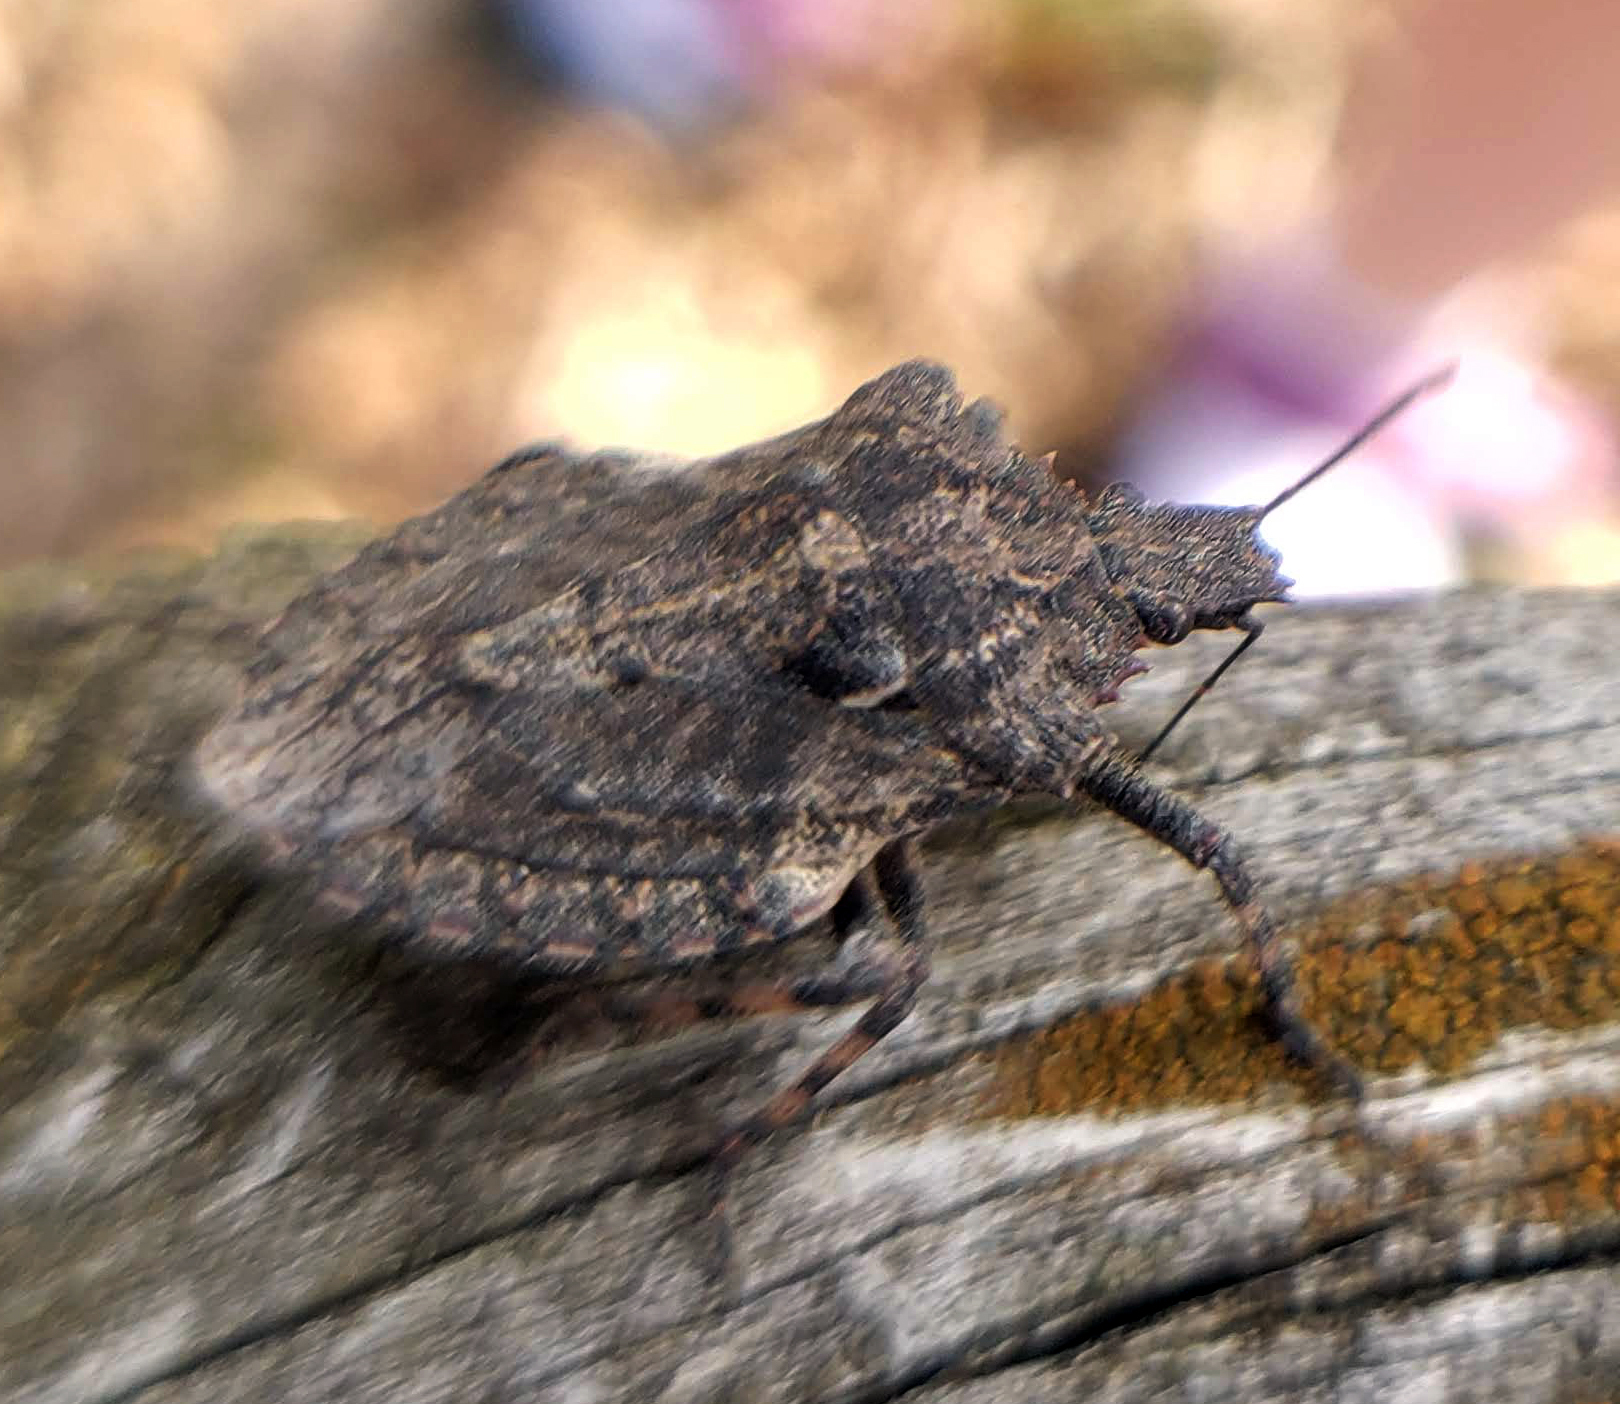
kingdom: Animalia
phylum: Arthropoda
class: Insecta
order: Hemiptera
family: Pentatomidae
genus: Brochymena
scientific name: Brochymena arborea
